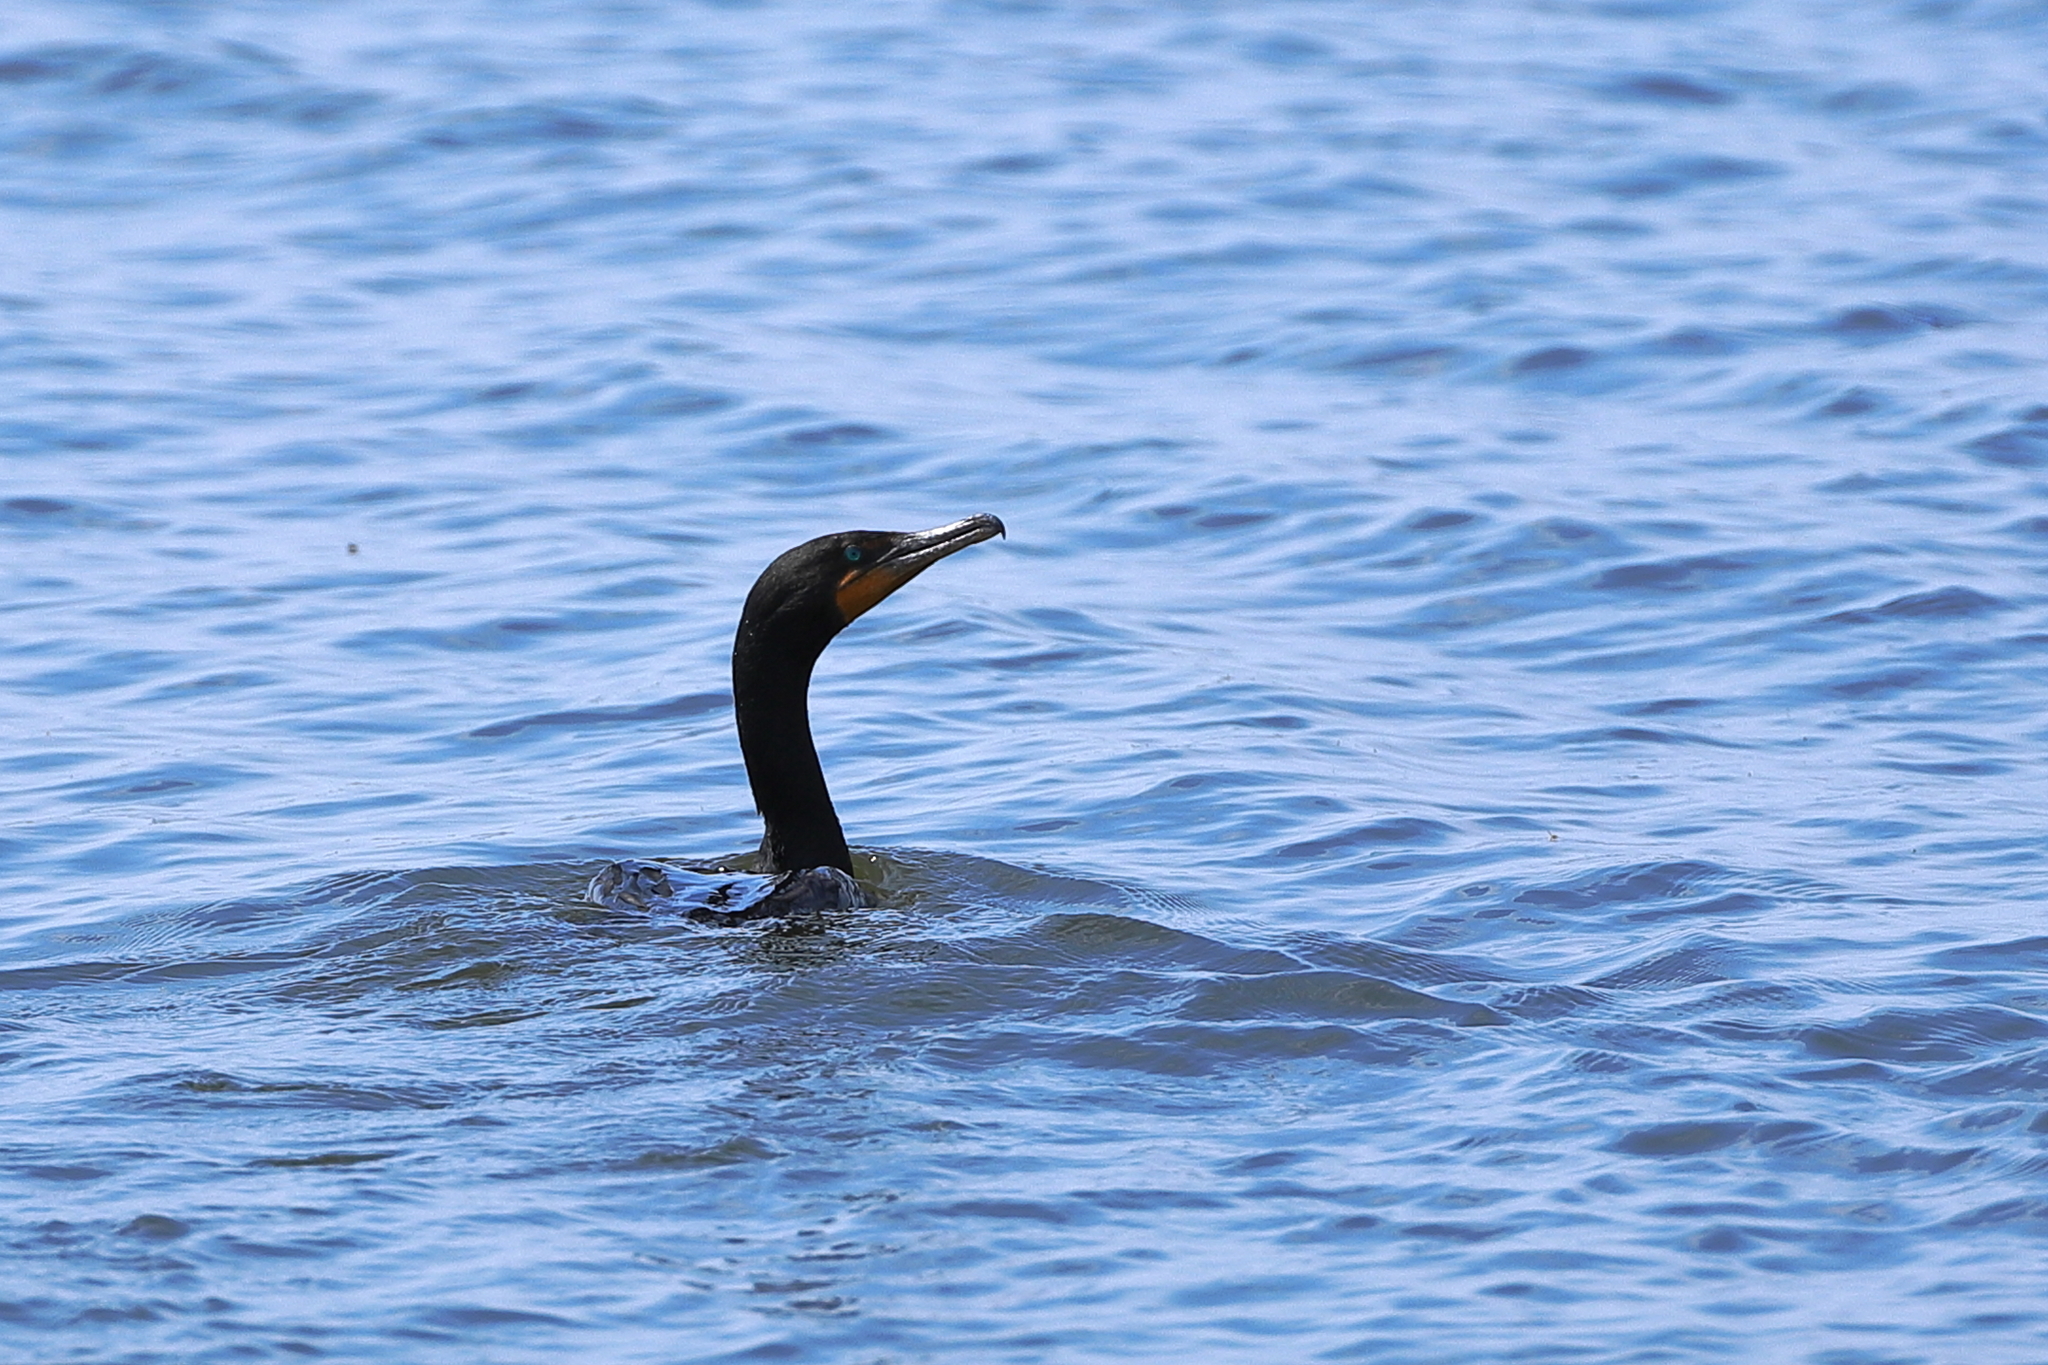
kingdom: Animalia
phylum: Chordata
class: Aves
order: Suliformes
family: Phalacrocoracidae
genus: Phalacrocorax
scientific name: Phalacrocorax auritus
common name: Double-crested cormorant
